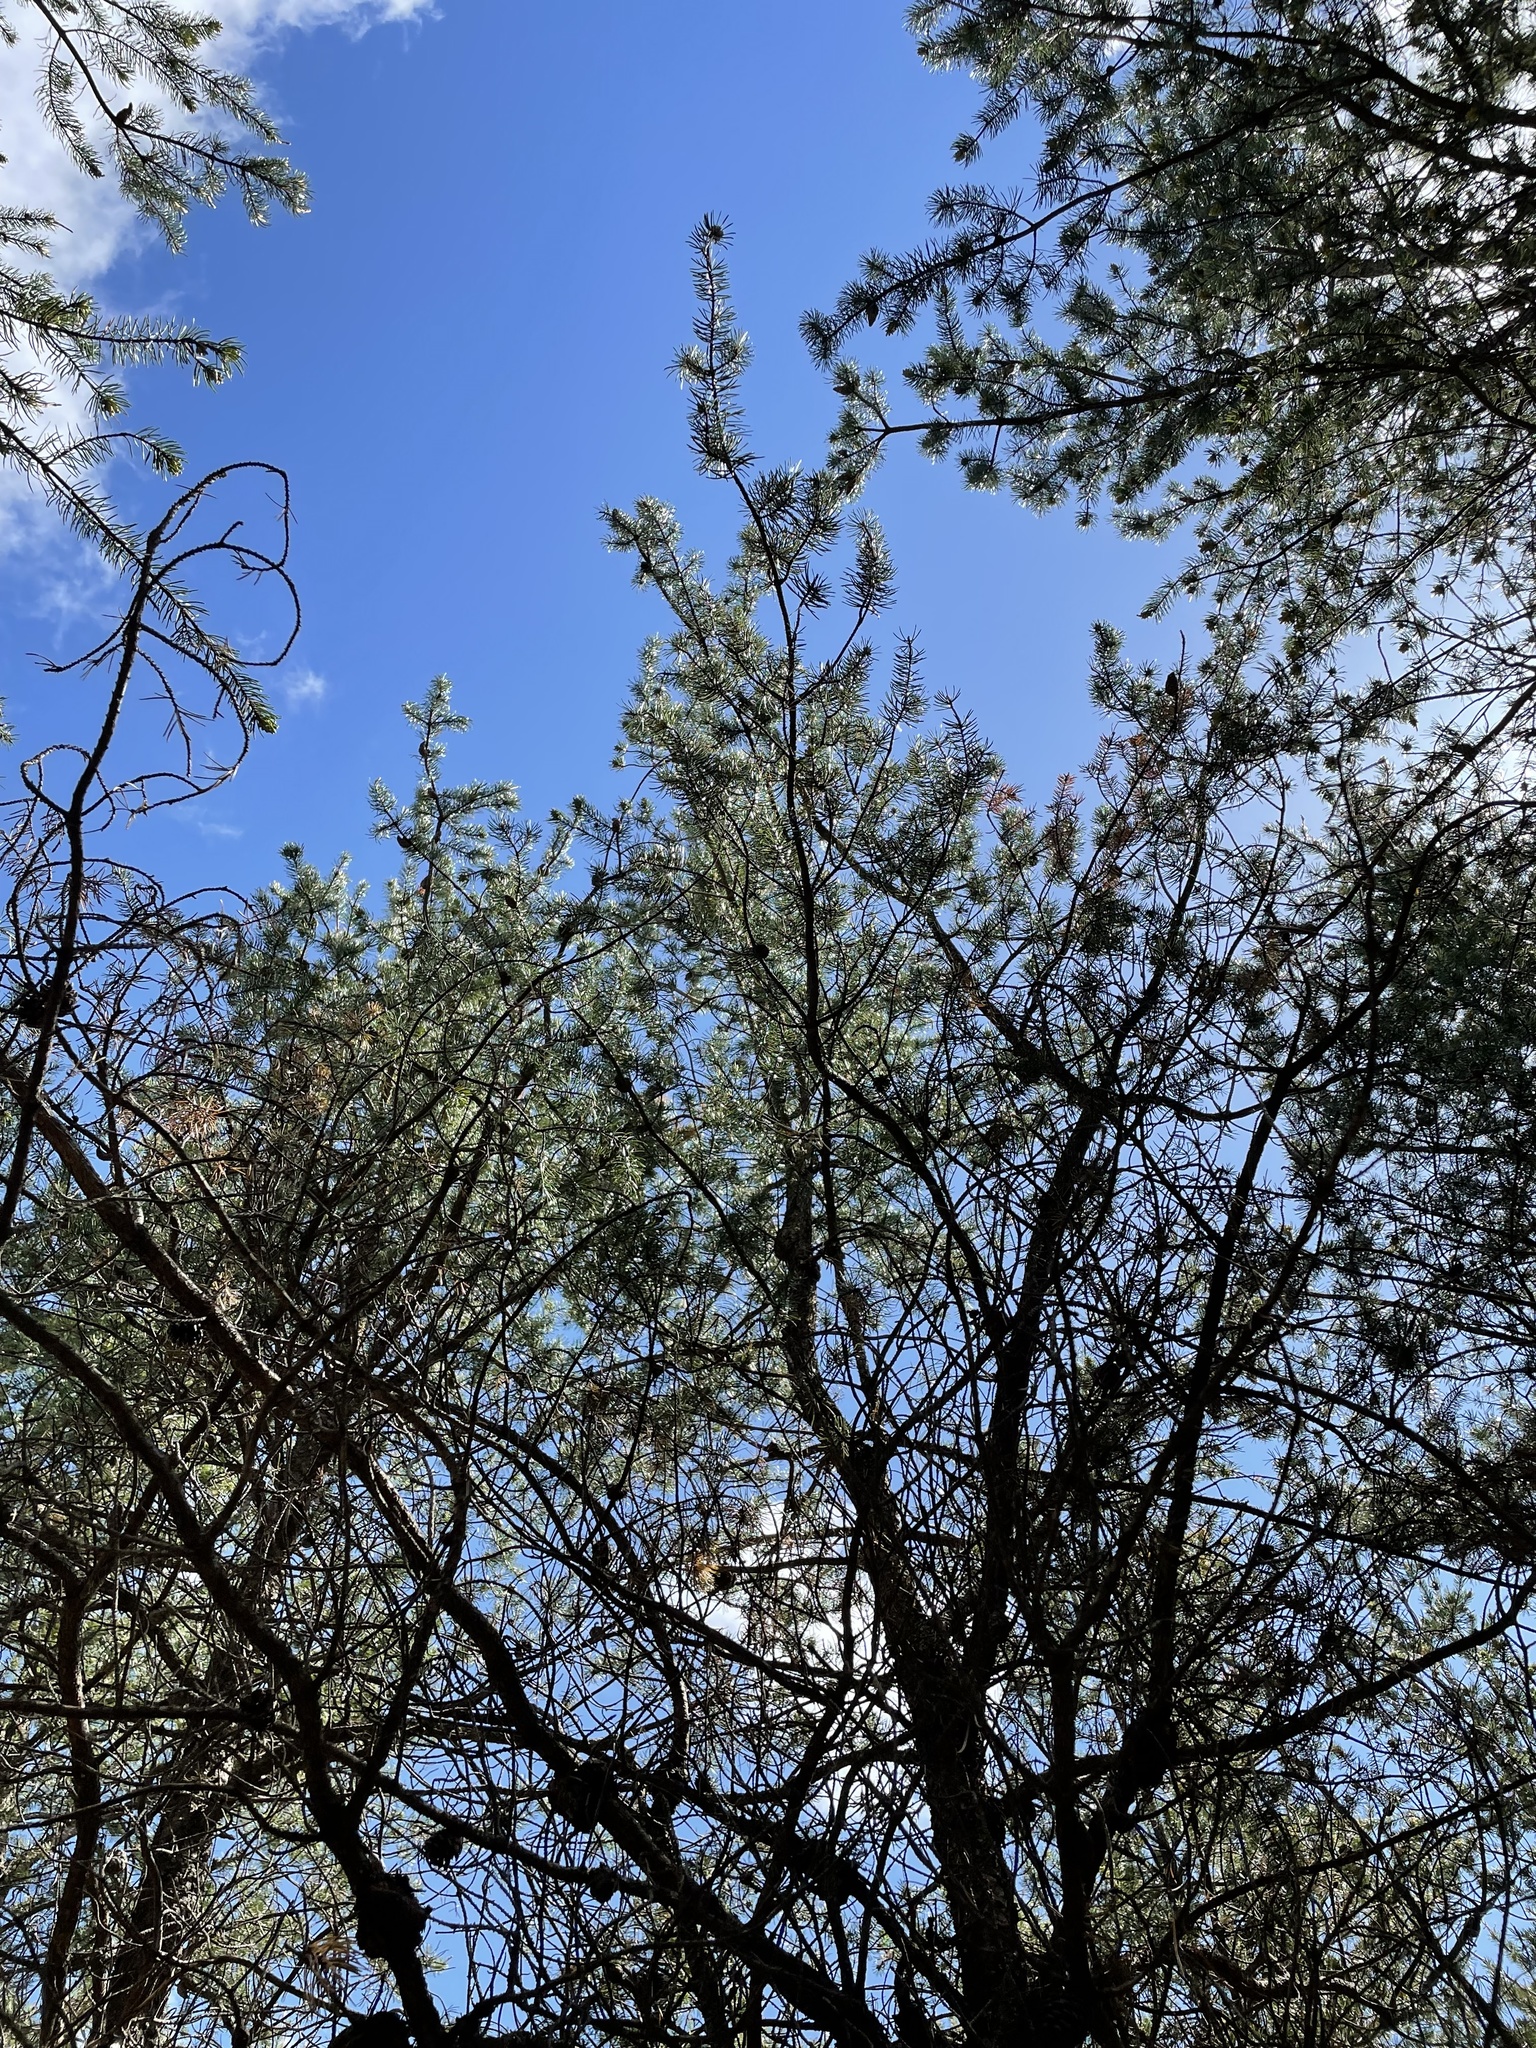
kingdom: Plantae
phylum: Tracheophyta
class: Pinopsida
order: Pinales
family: Pinaceae
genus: Pinus
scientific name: Pinus banksiana
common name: Jack pine
